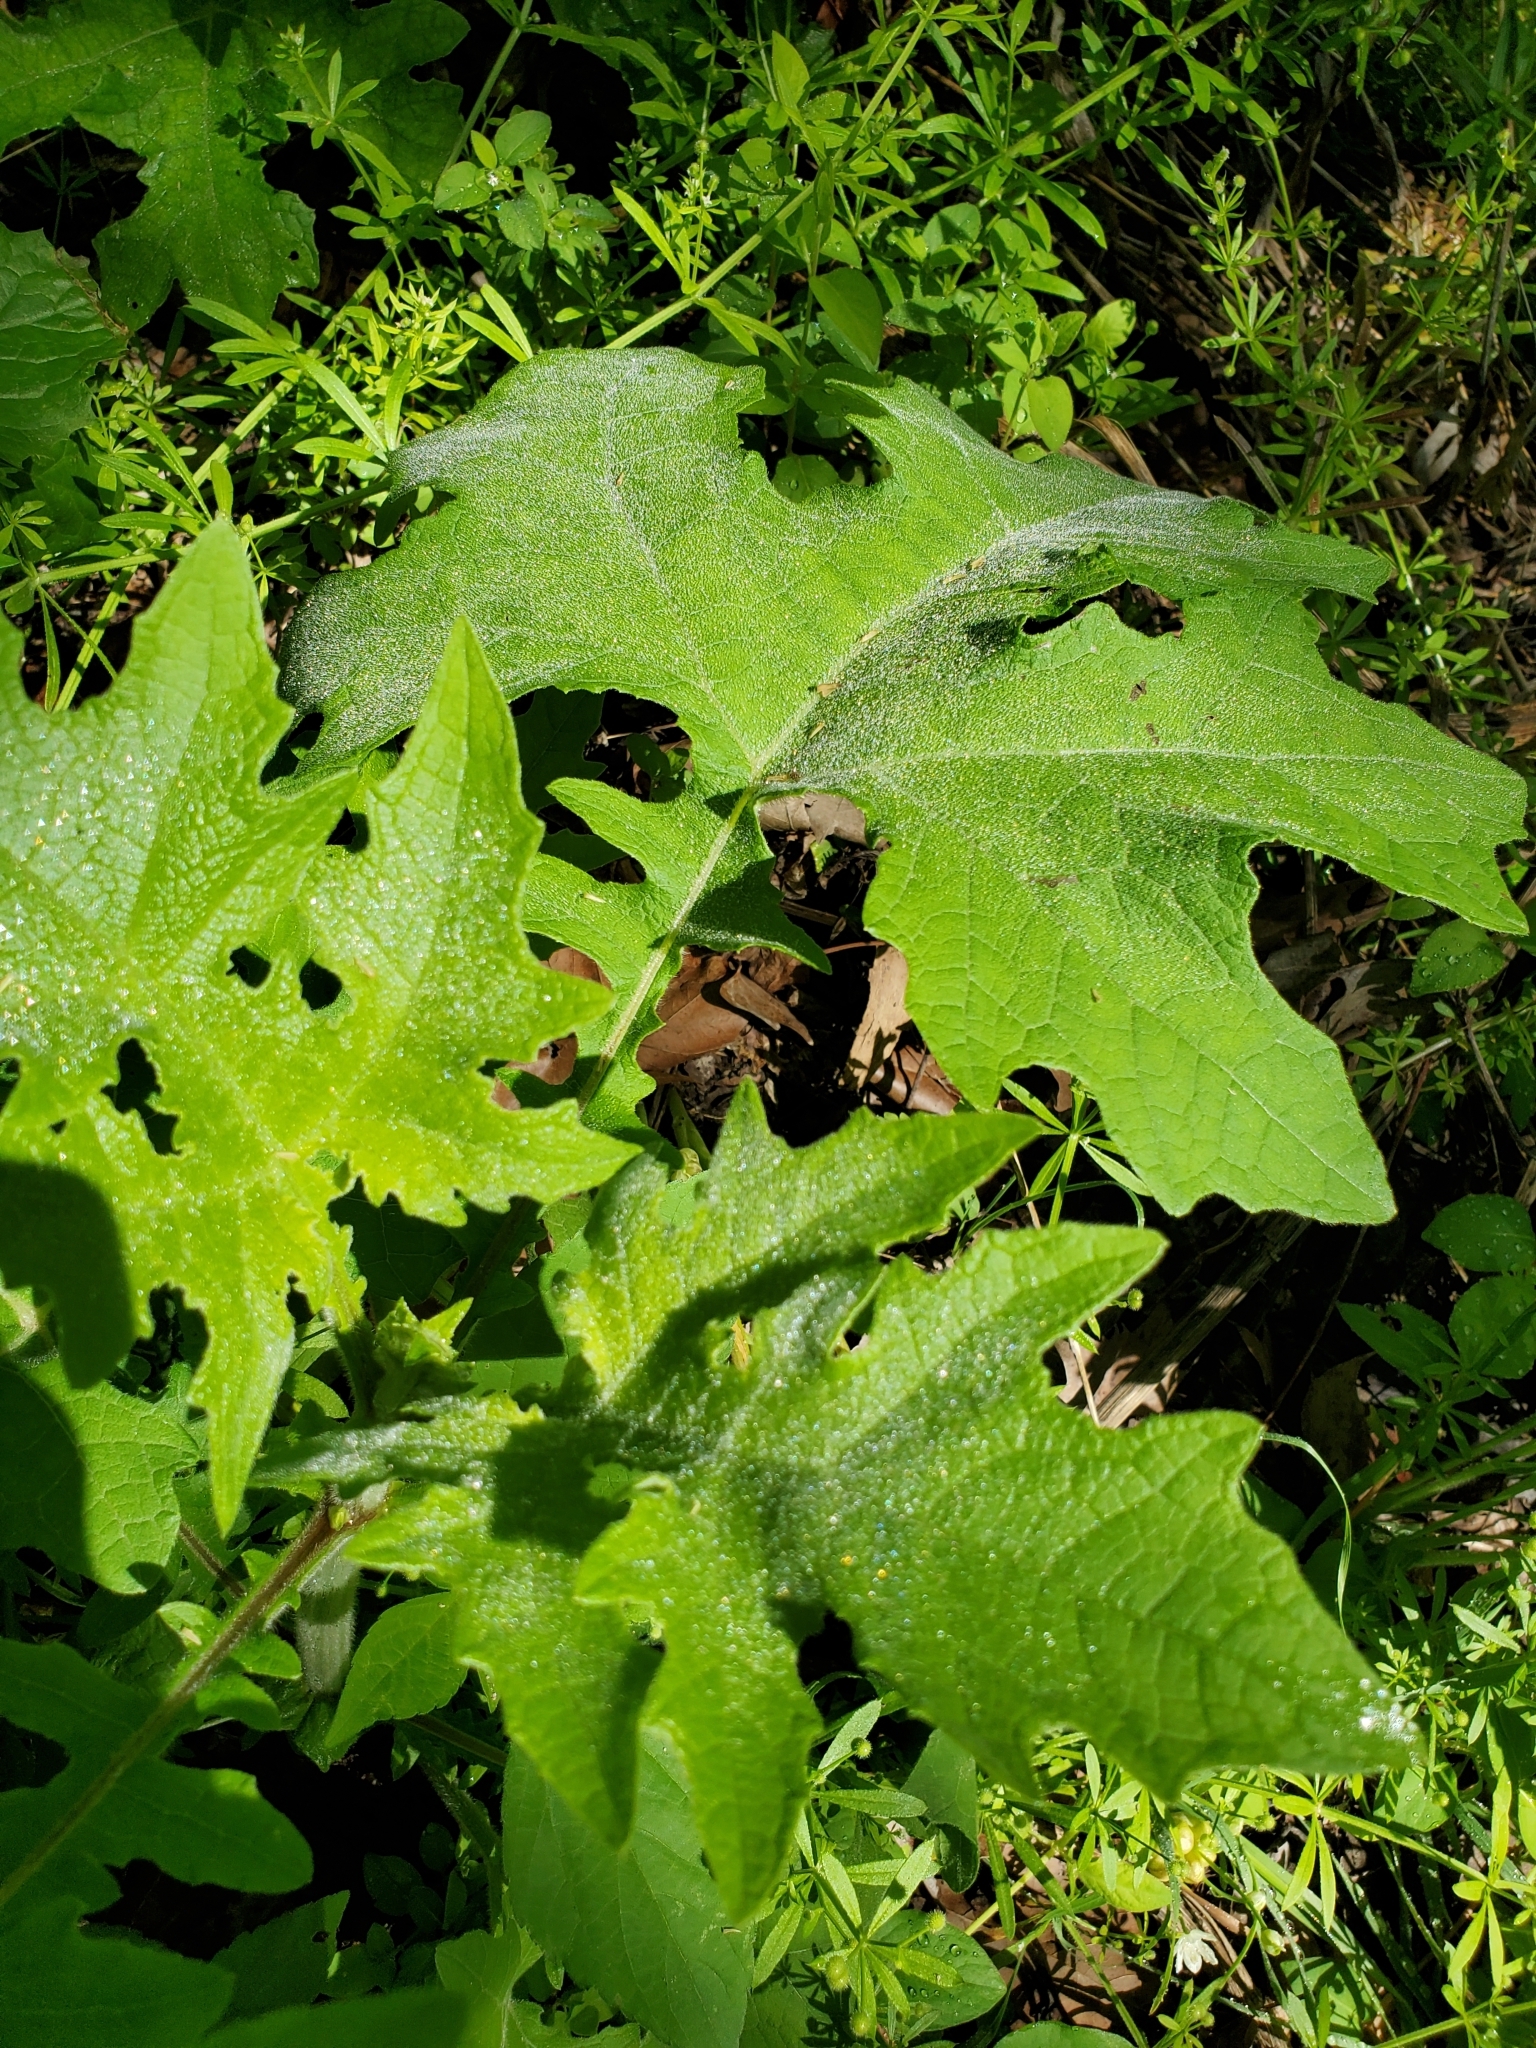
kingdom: Plantae
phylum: Tracheophyta
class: Magnoliopsida
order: Asterales
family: Asteraceae
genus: Smallanthus
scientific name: Smallanthus uvedalia
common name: Bear's-foot
